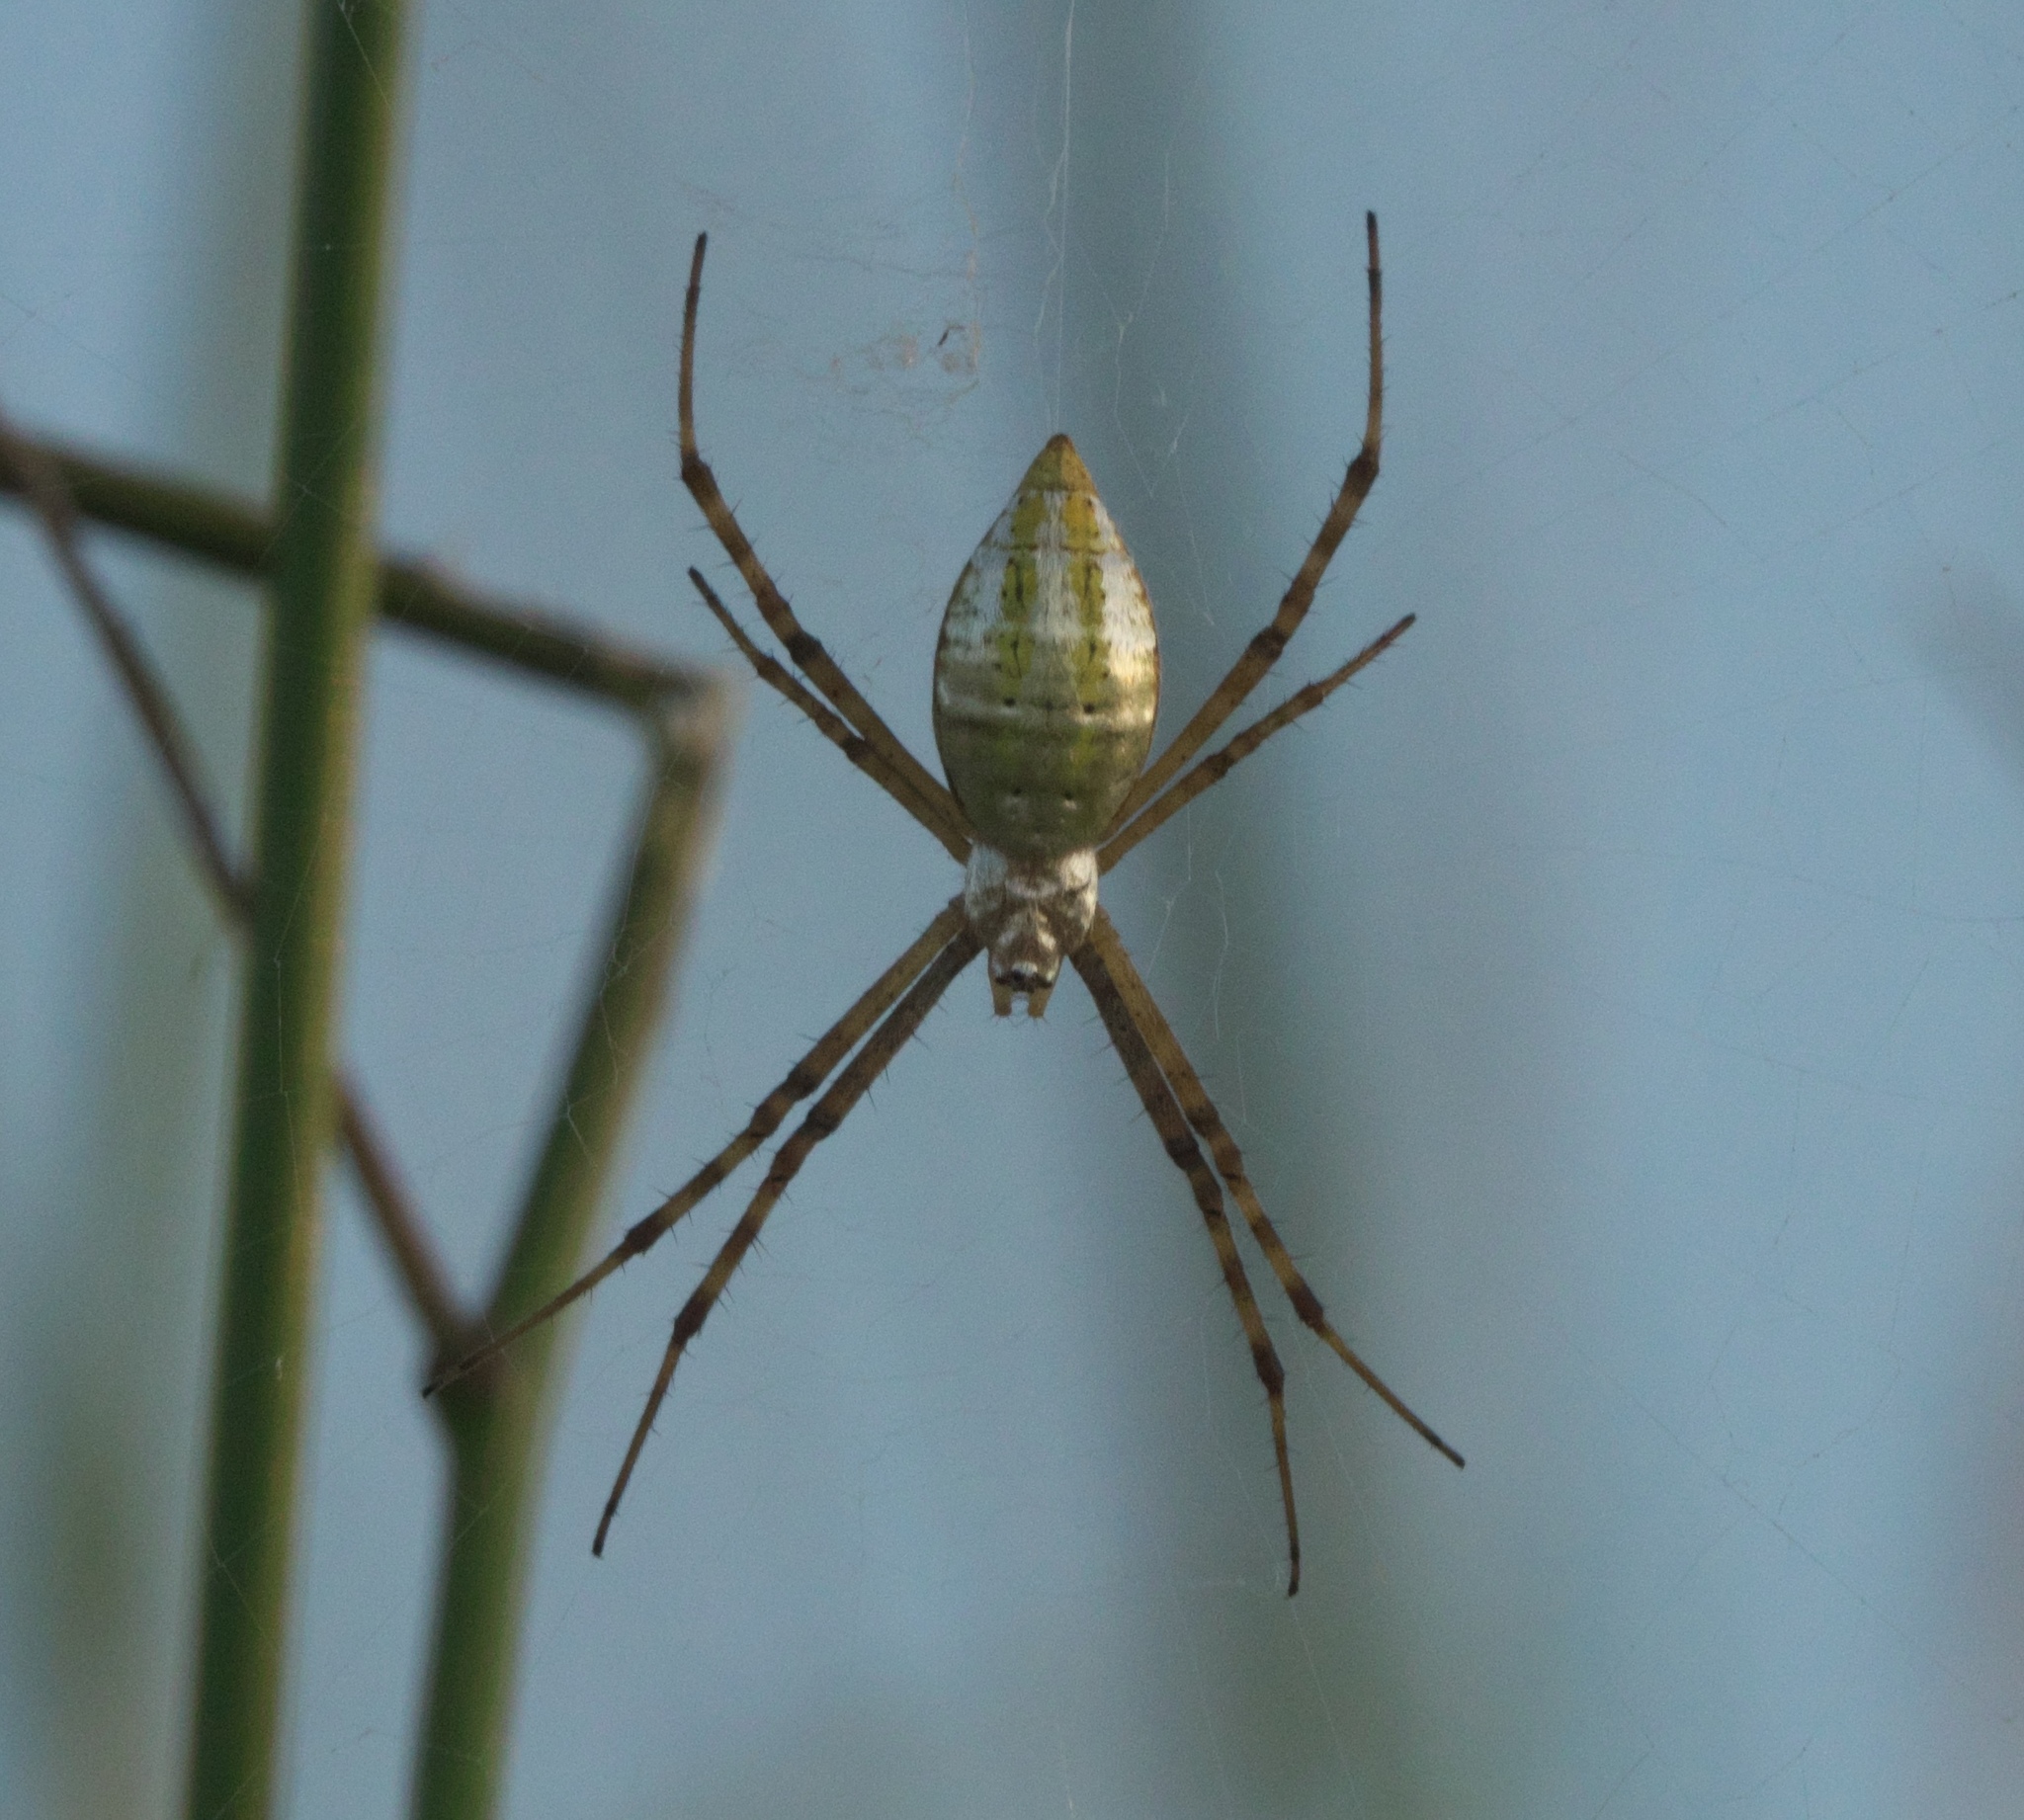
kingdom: Animalia
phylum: Arthropoda
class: Arachnida
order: Araneae
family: Araneidae
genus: Argiope
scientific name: Argiope trifasciata
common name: Banded garden spider
